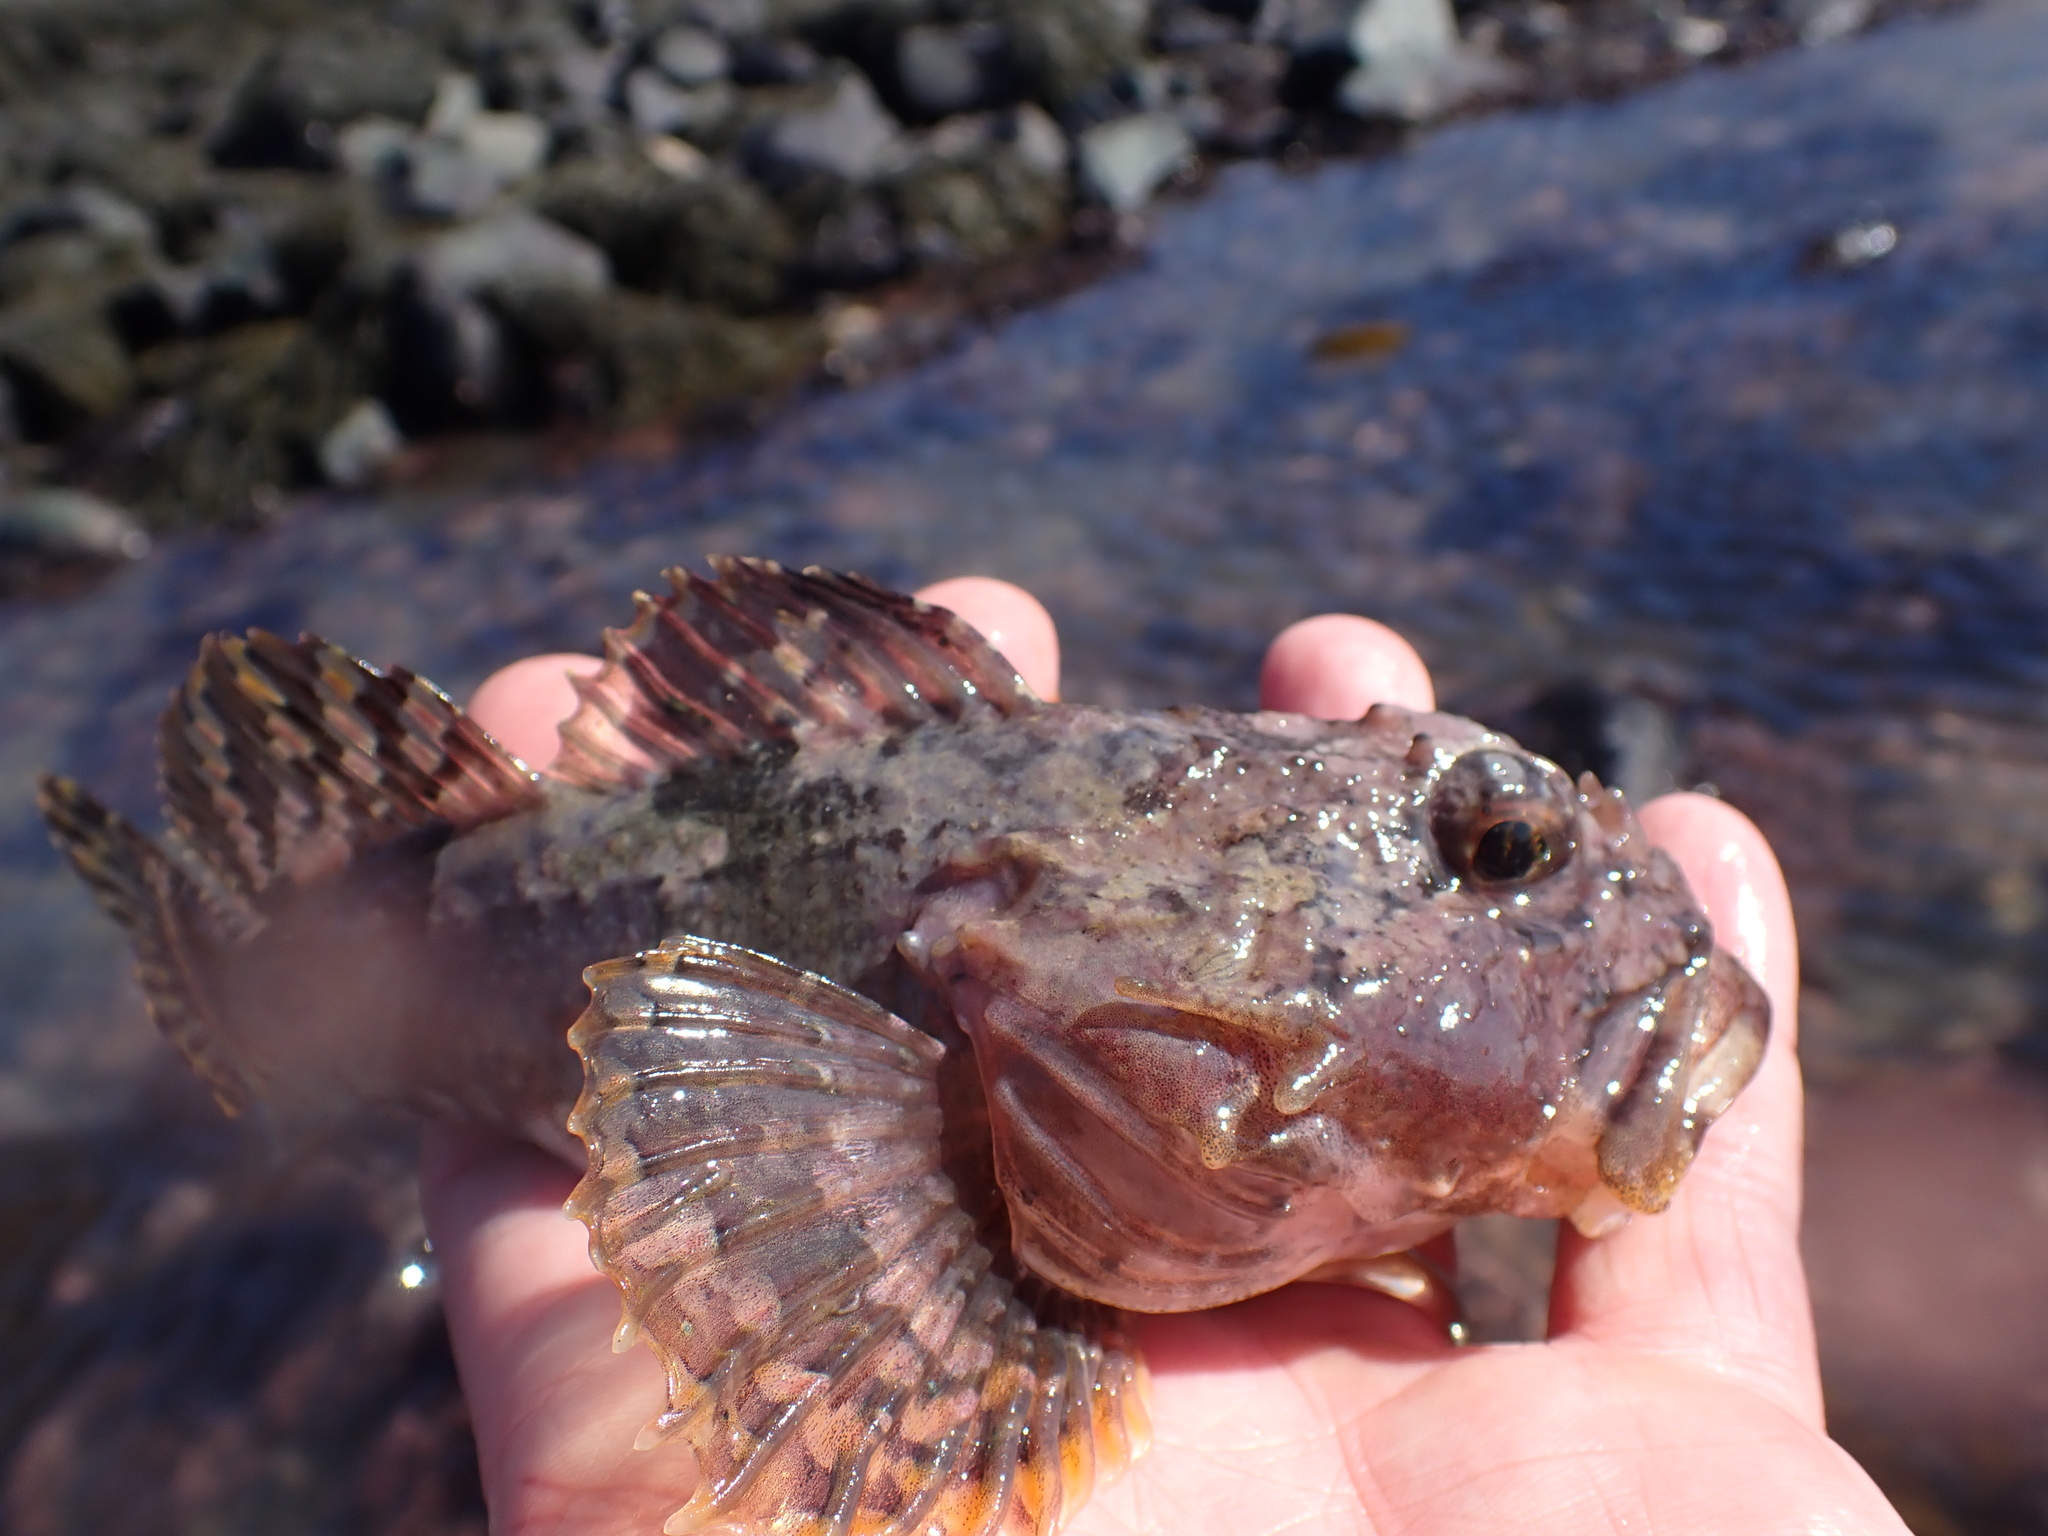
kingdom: Animalia
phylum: Chordata
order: Scorpaeniformes
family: Cottidae
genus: Myoxocephalus
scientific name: Myoxocephalus scorpius
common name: Shorthorn sculpin
